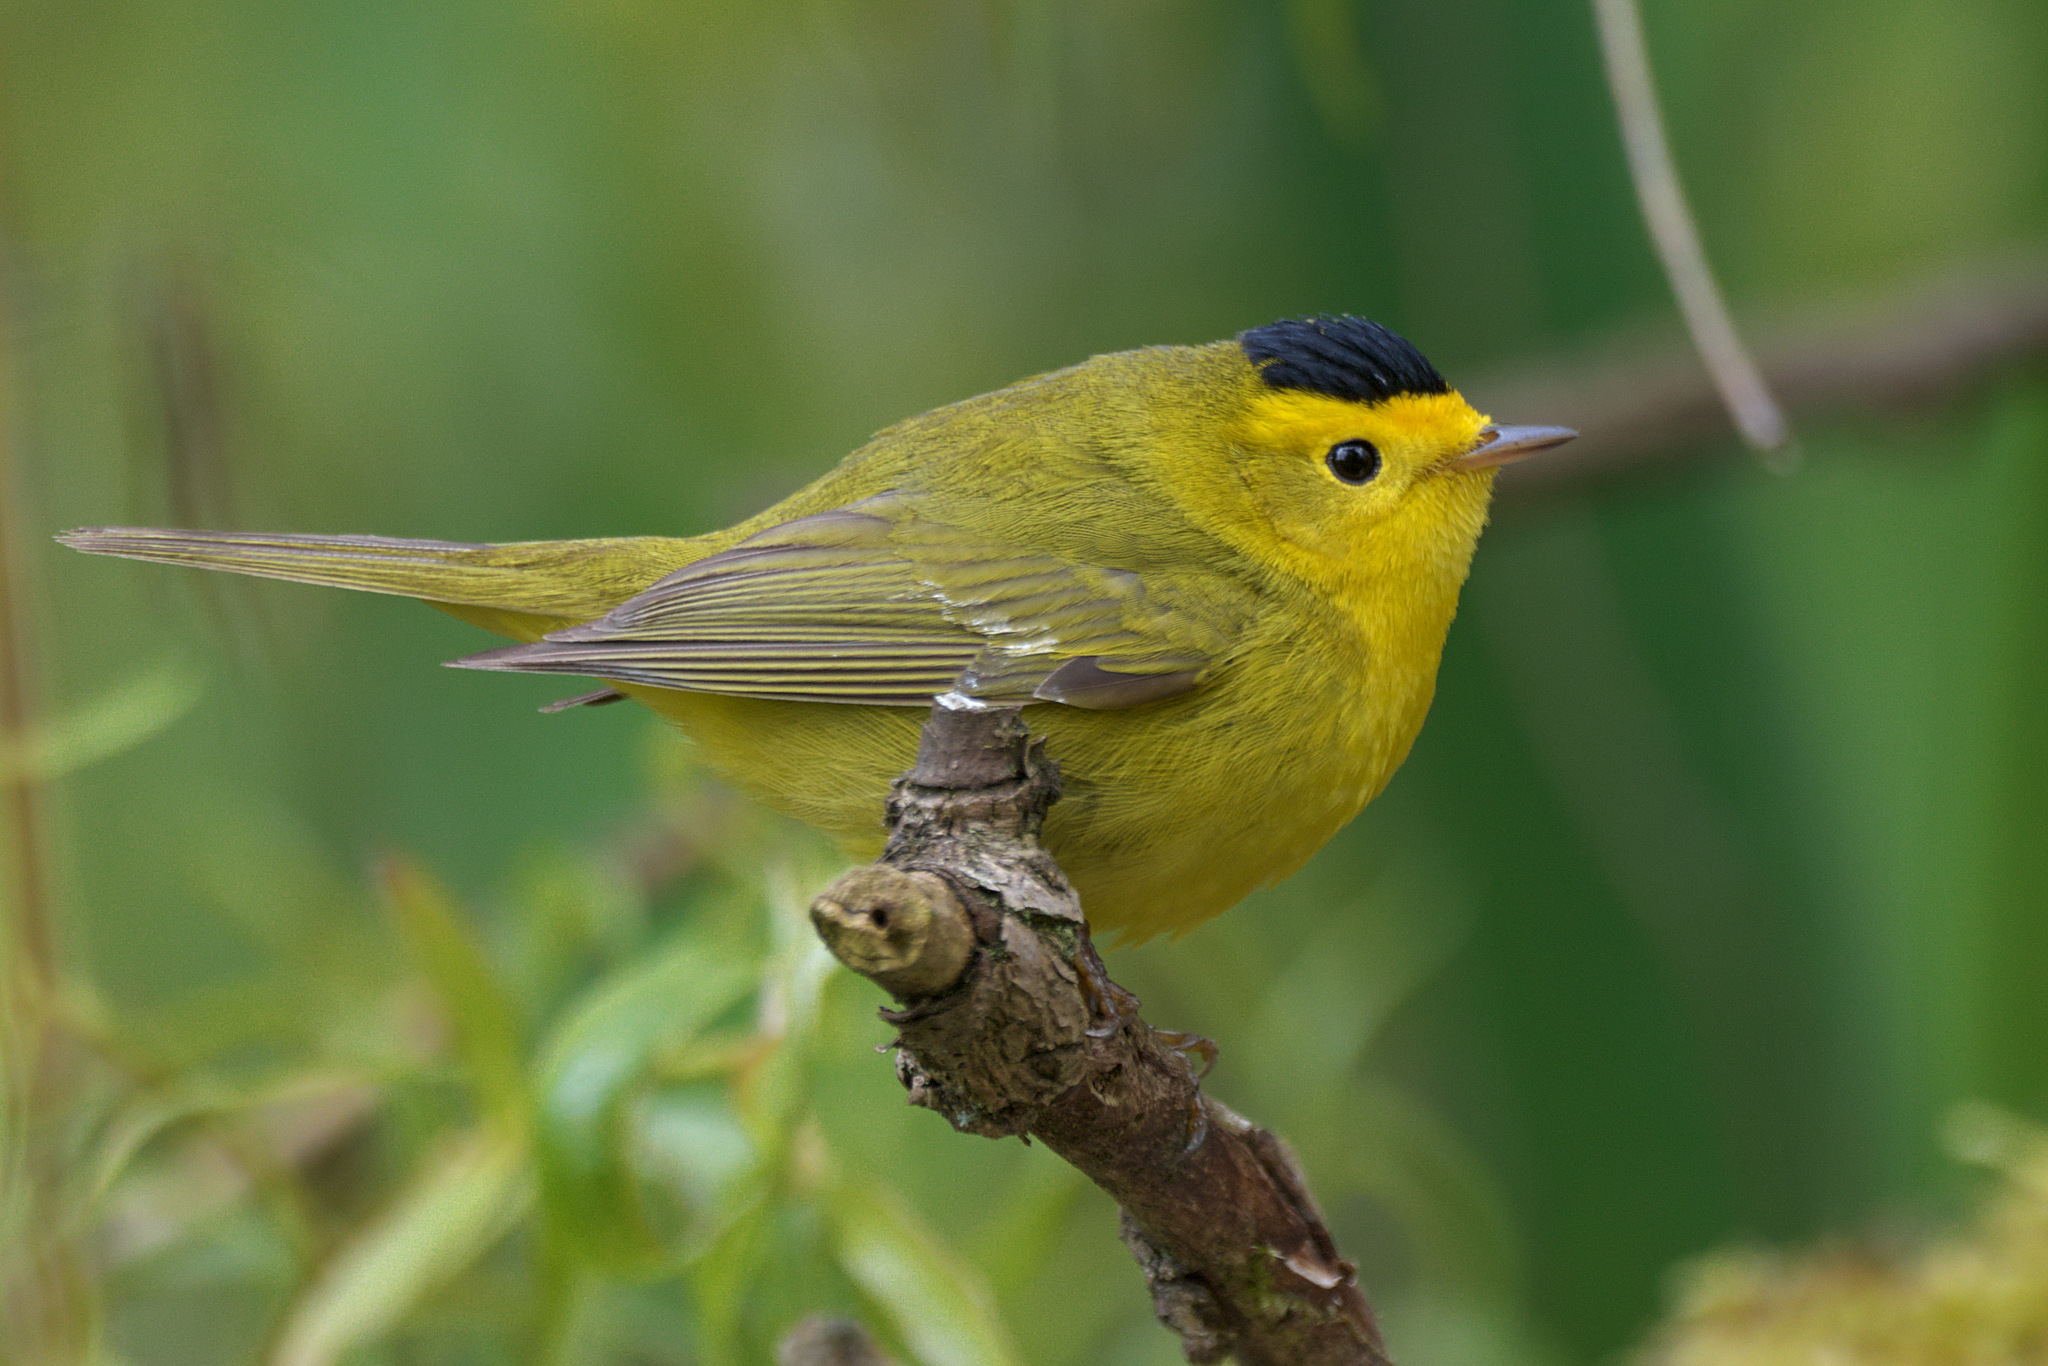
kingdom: Animalia
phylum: Chordata
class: Aves
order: Passeriformes
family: Parulidae
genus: Cardellina
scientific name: Cardellina pusilla
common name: Wilson's warbler
